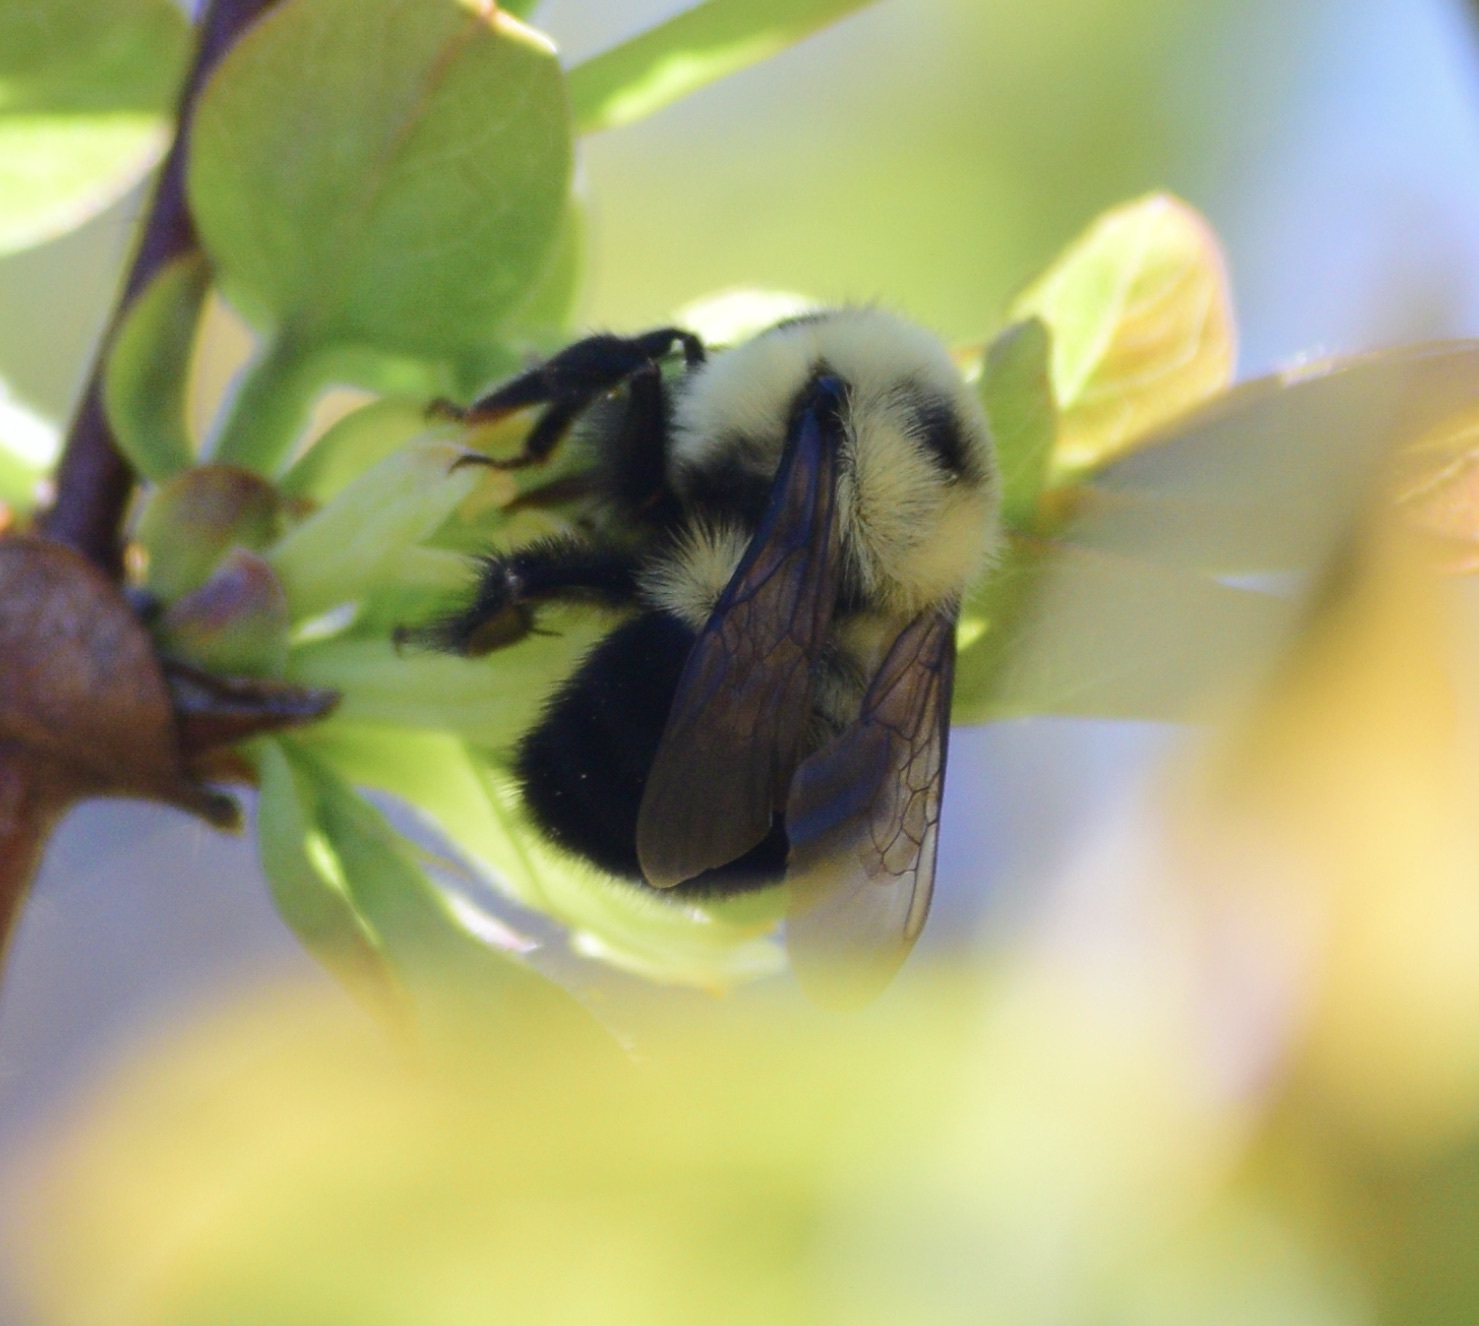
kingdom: Animalia
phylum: Arthropoda
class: Insecta
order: Hymenoptera
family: Apidae
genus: Bombus
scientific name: Bombus bimaculatus
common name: Two-spotted bumble bee
